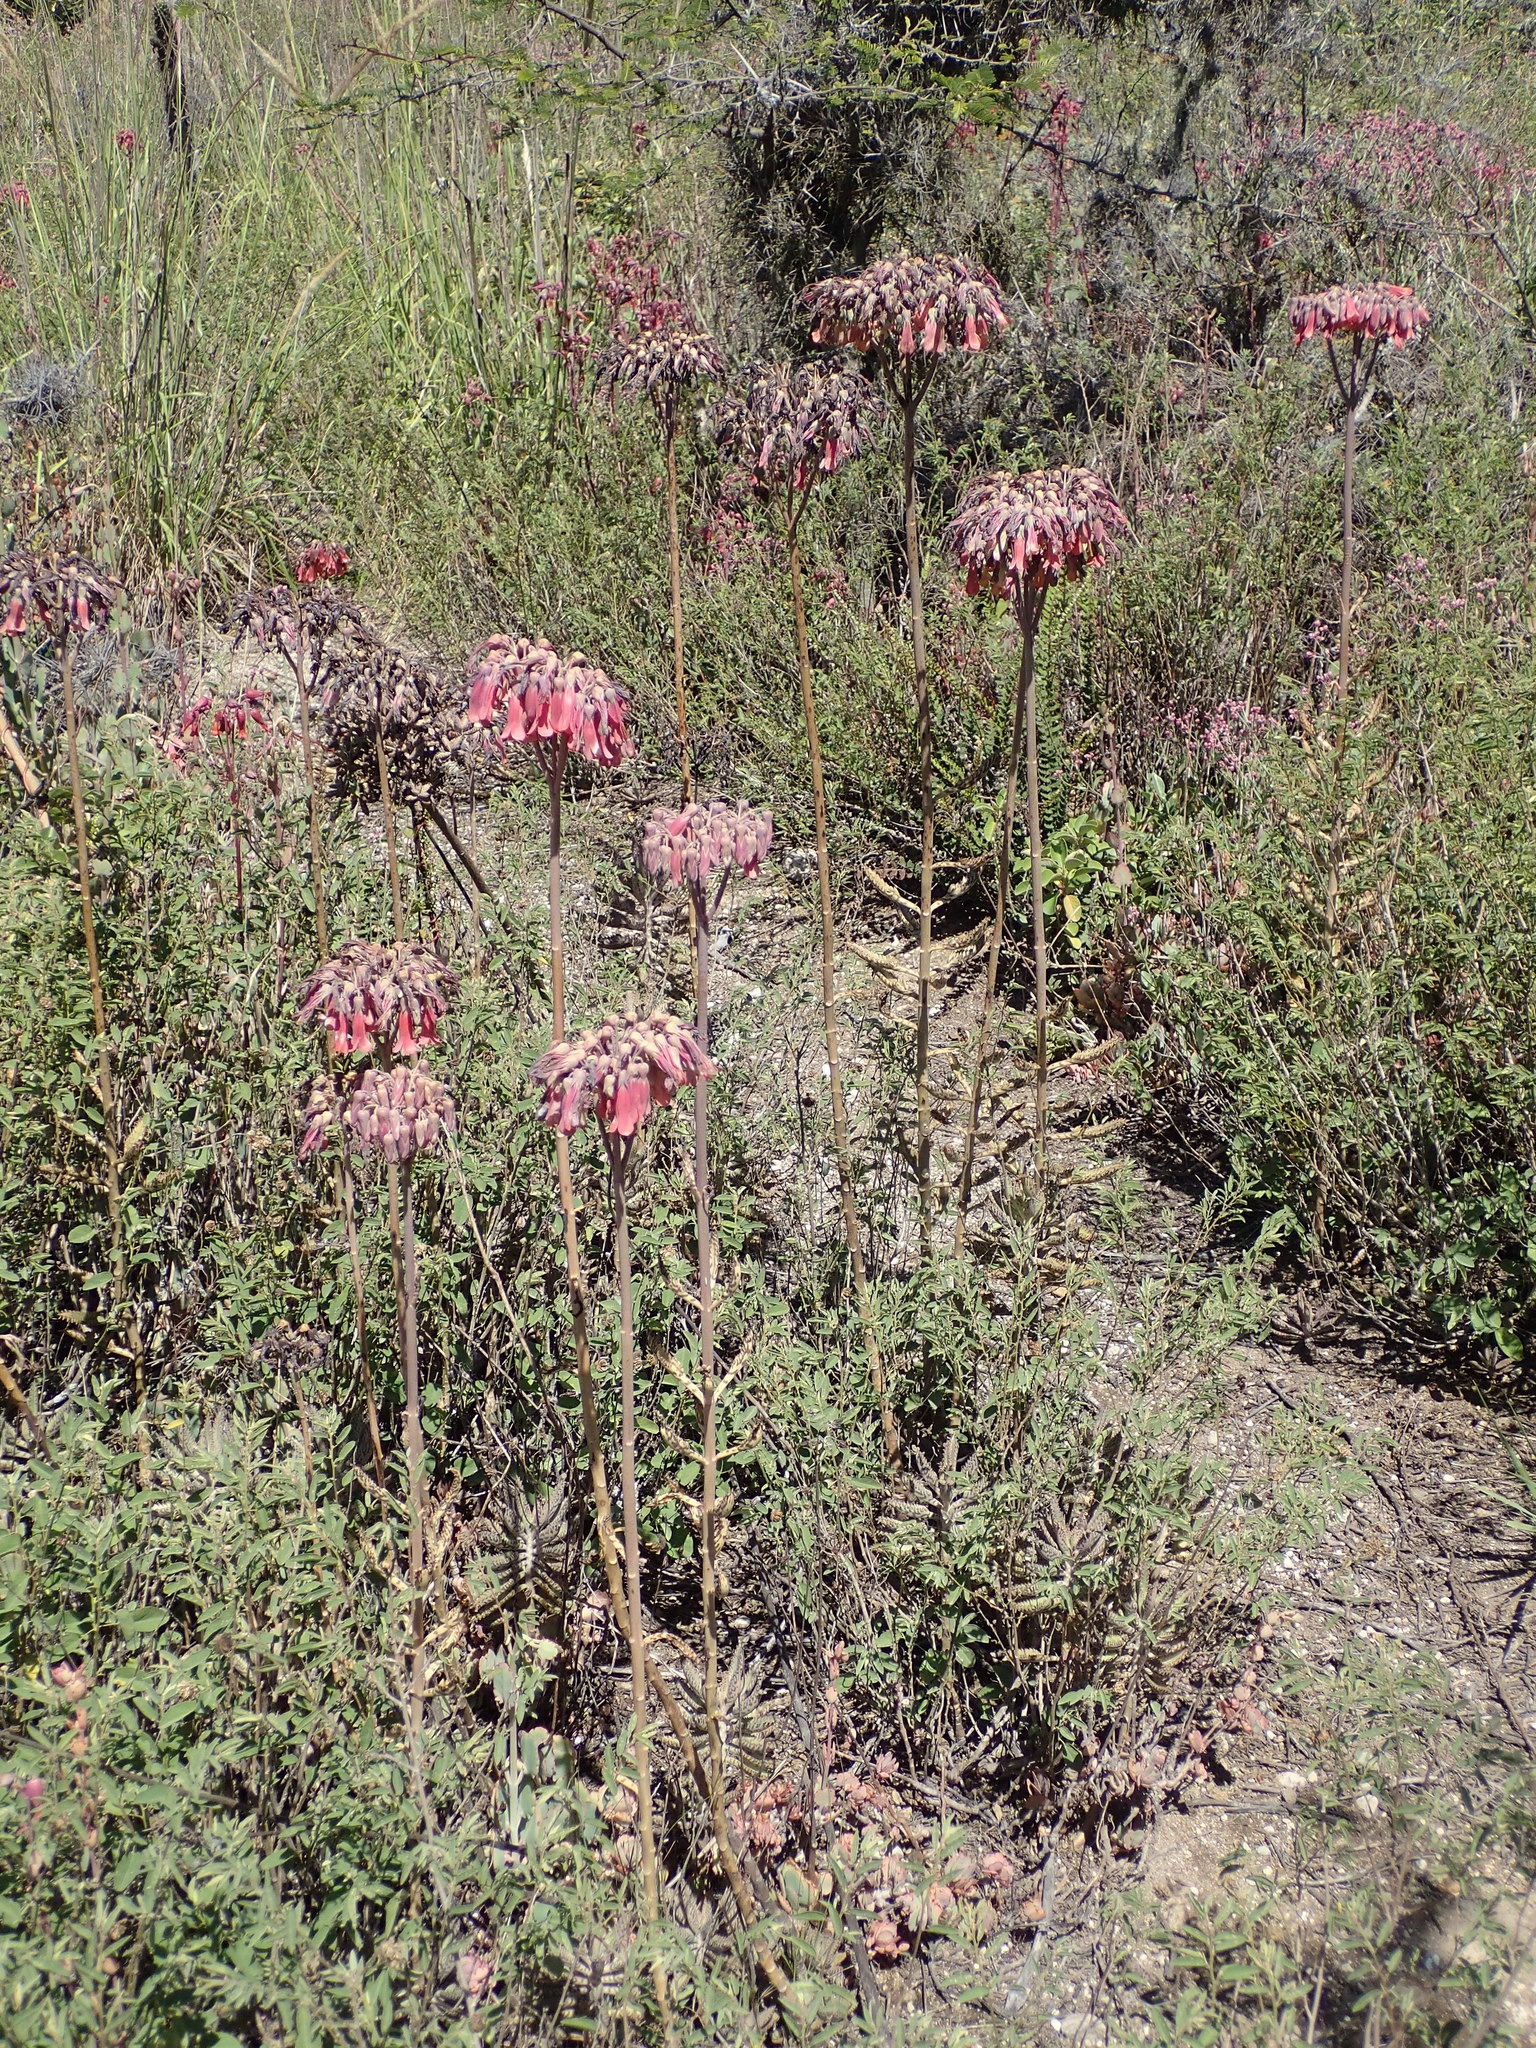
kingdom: Plantae
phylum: Tracheophyta
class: Magnoliopsida
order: Saxifragales
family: Crassulaceae
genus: Kalanchoe
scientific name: Kalanchoe houghtonii
